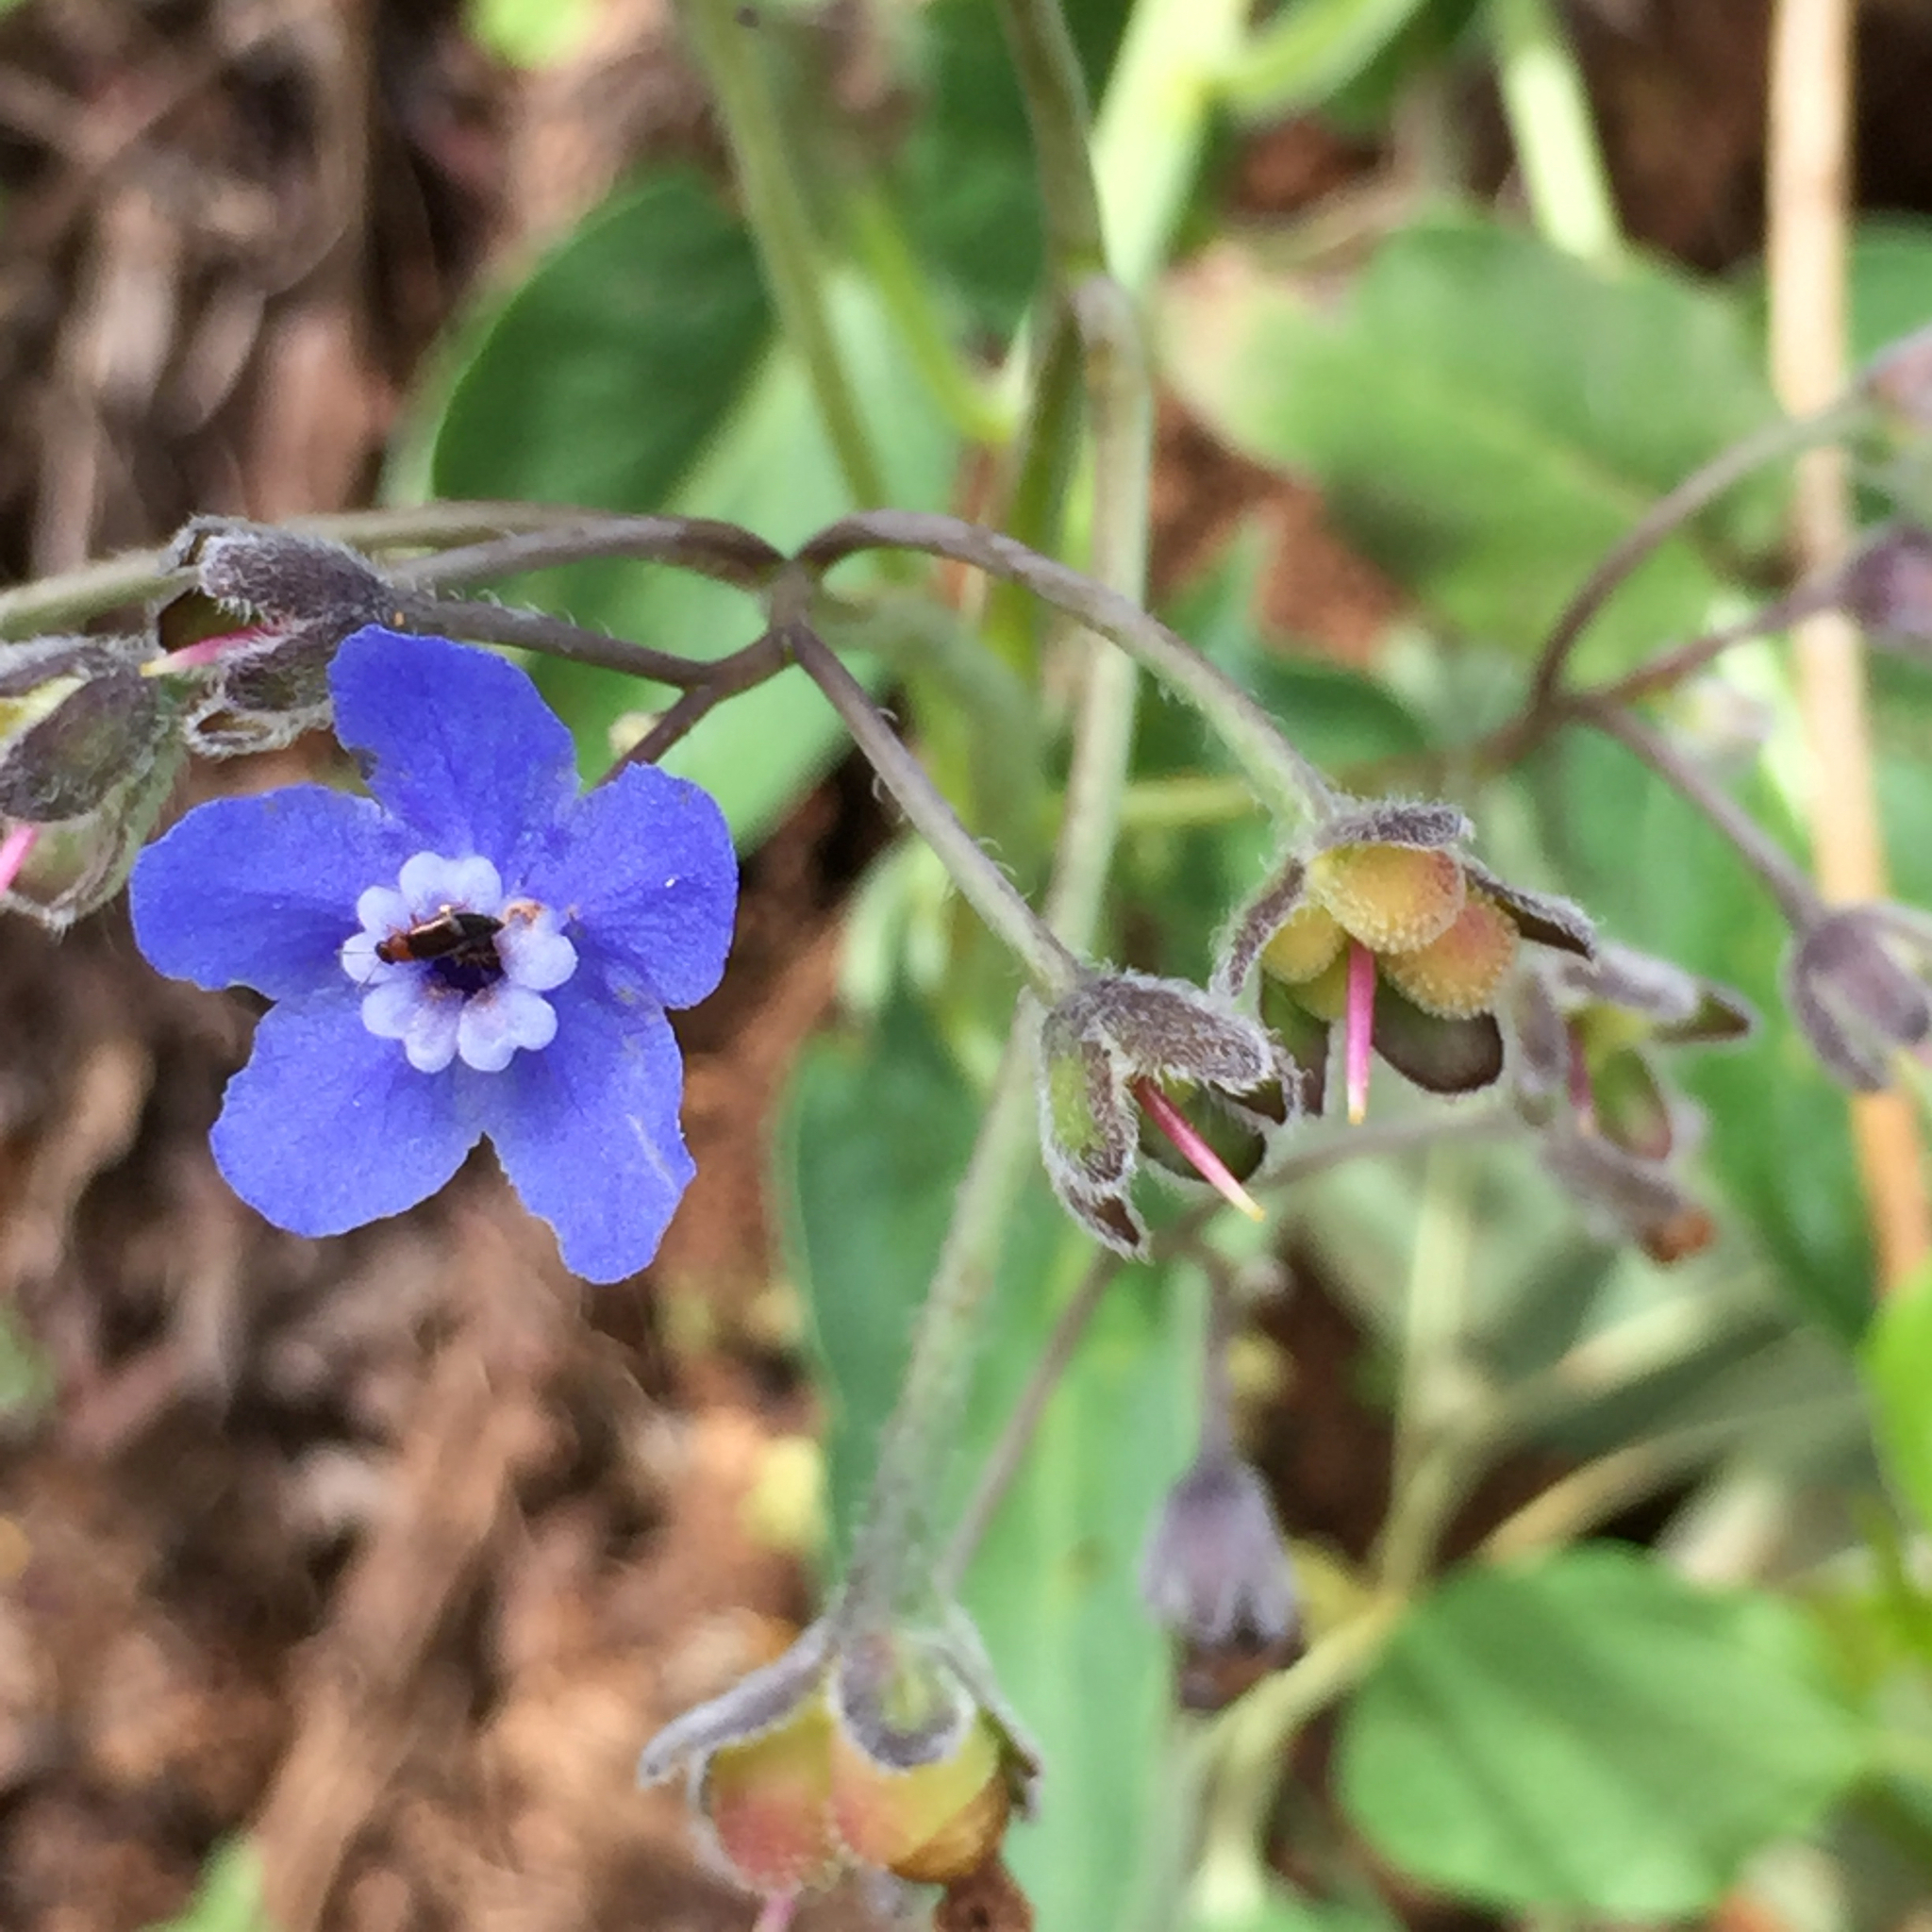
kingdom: Plantae
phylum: Tracheophyta
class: Magnoliopsida
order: Boraginales
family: Boraginaceae
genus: Adelinia
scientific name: Adelinia grande
